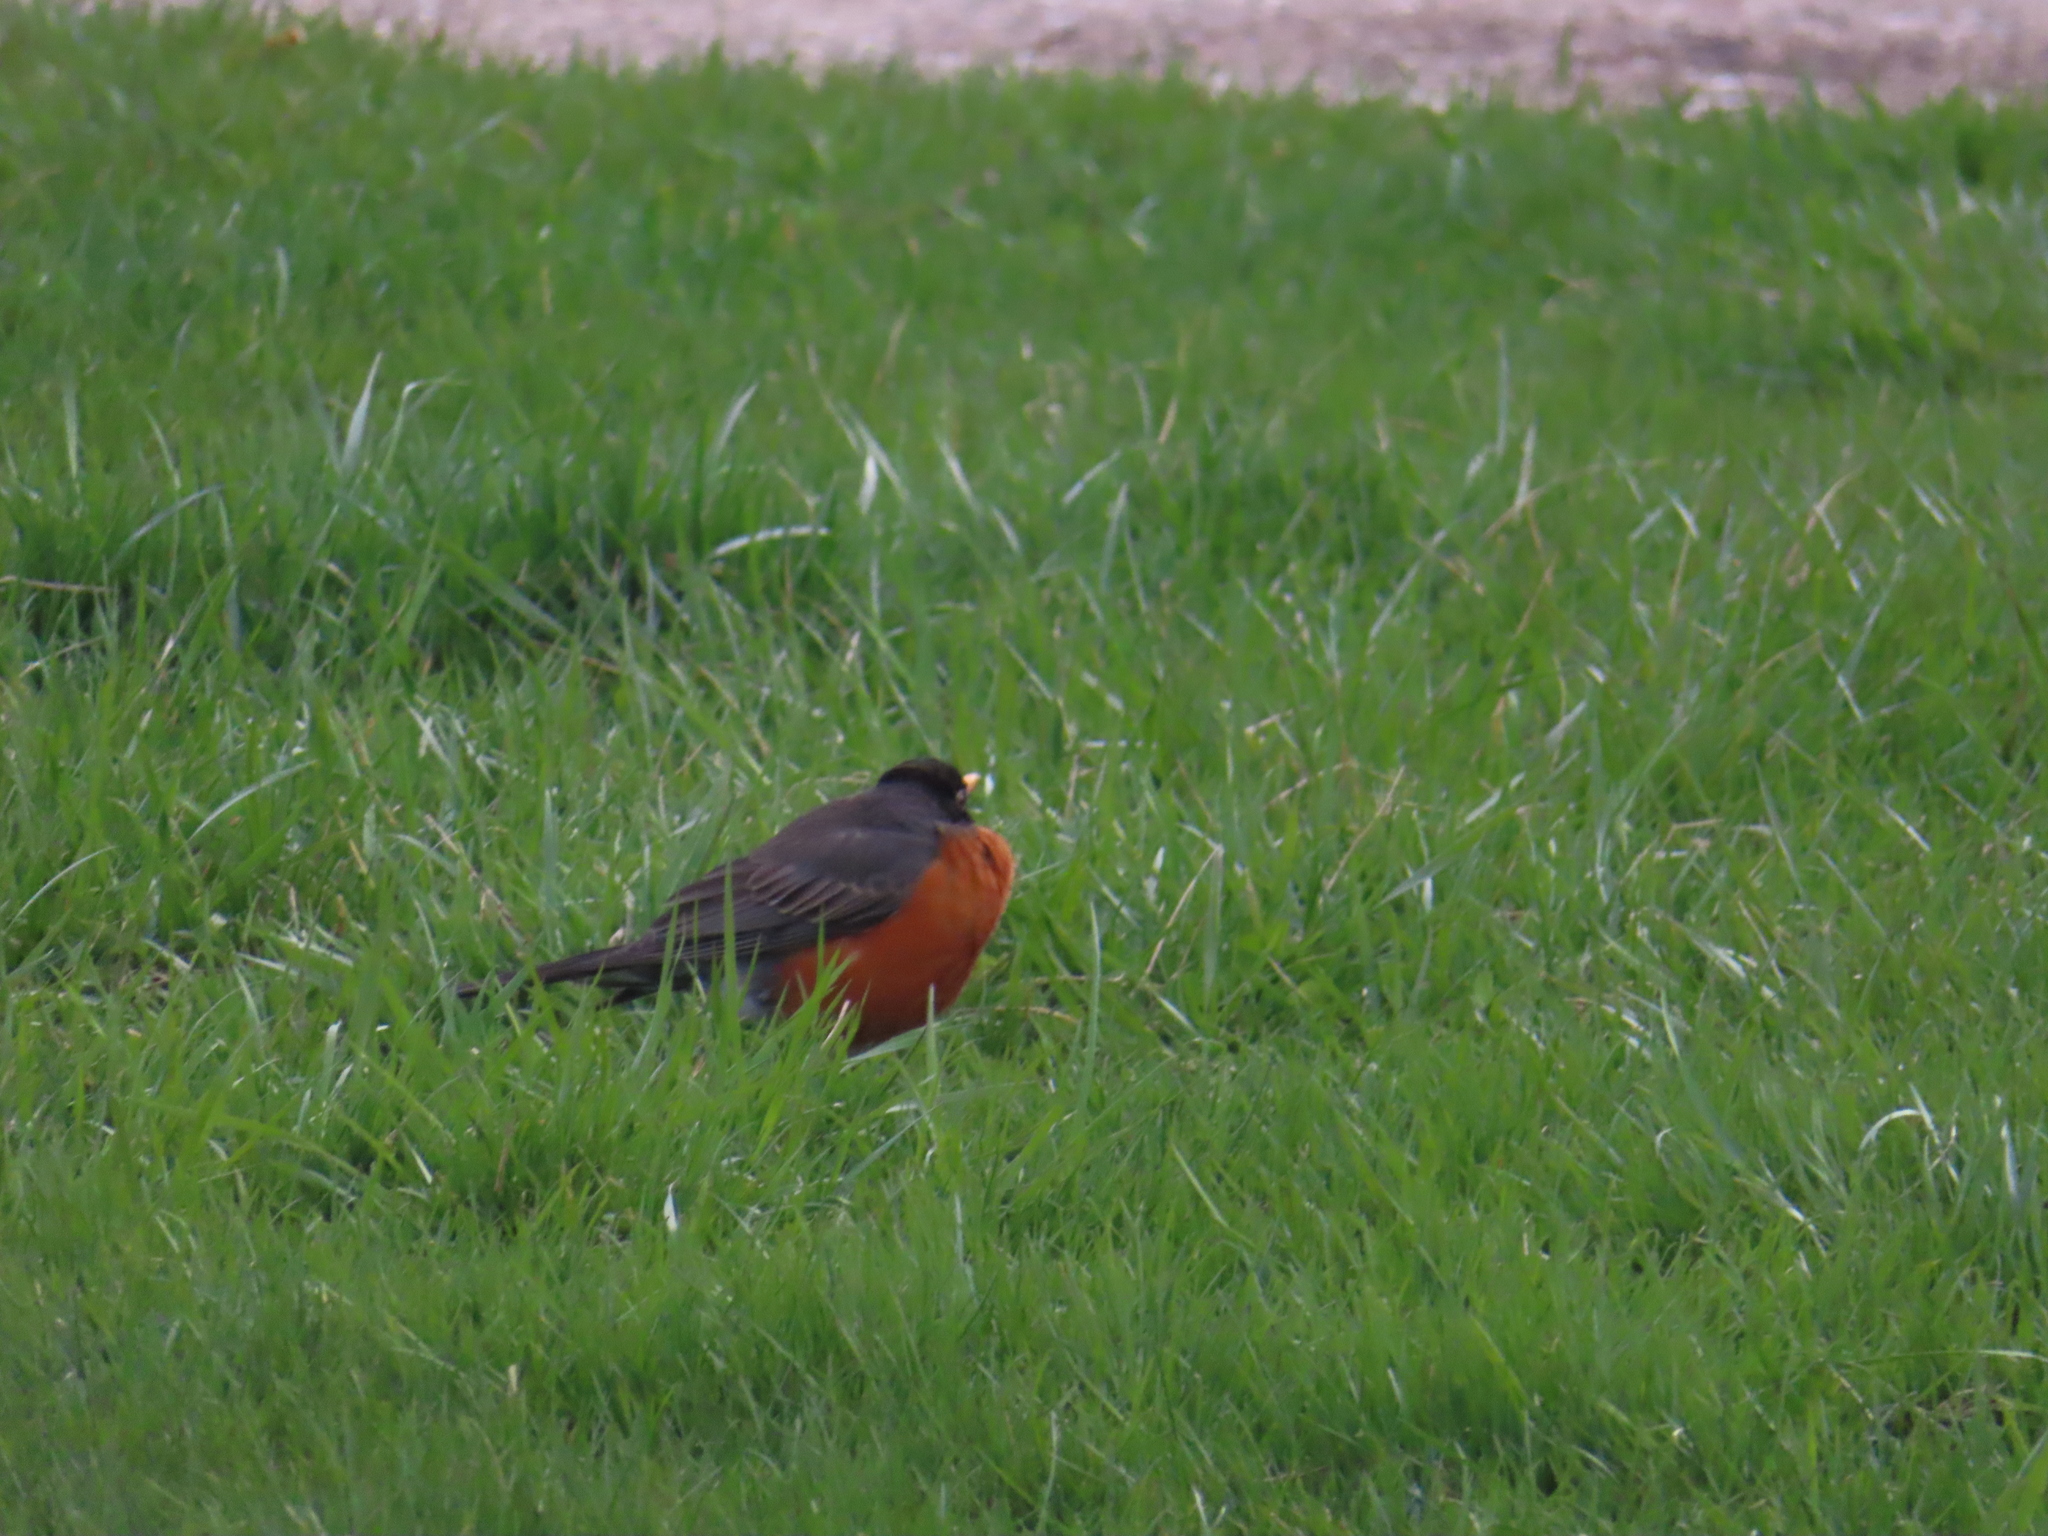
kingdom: Animalia
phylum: Chordata
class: Aves
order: Passeriformes
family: Turdidae
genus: Turdus
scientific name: Turdus migratorius
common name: American robin
